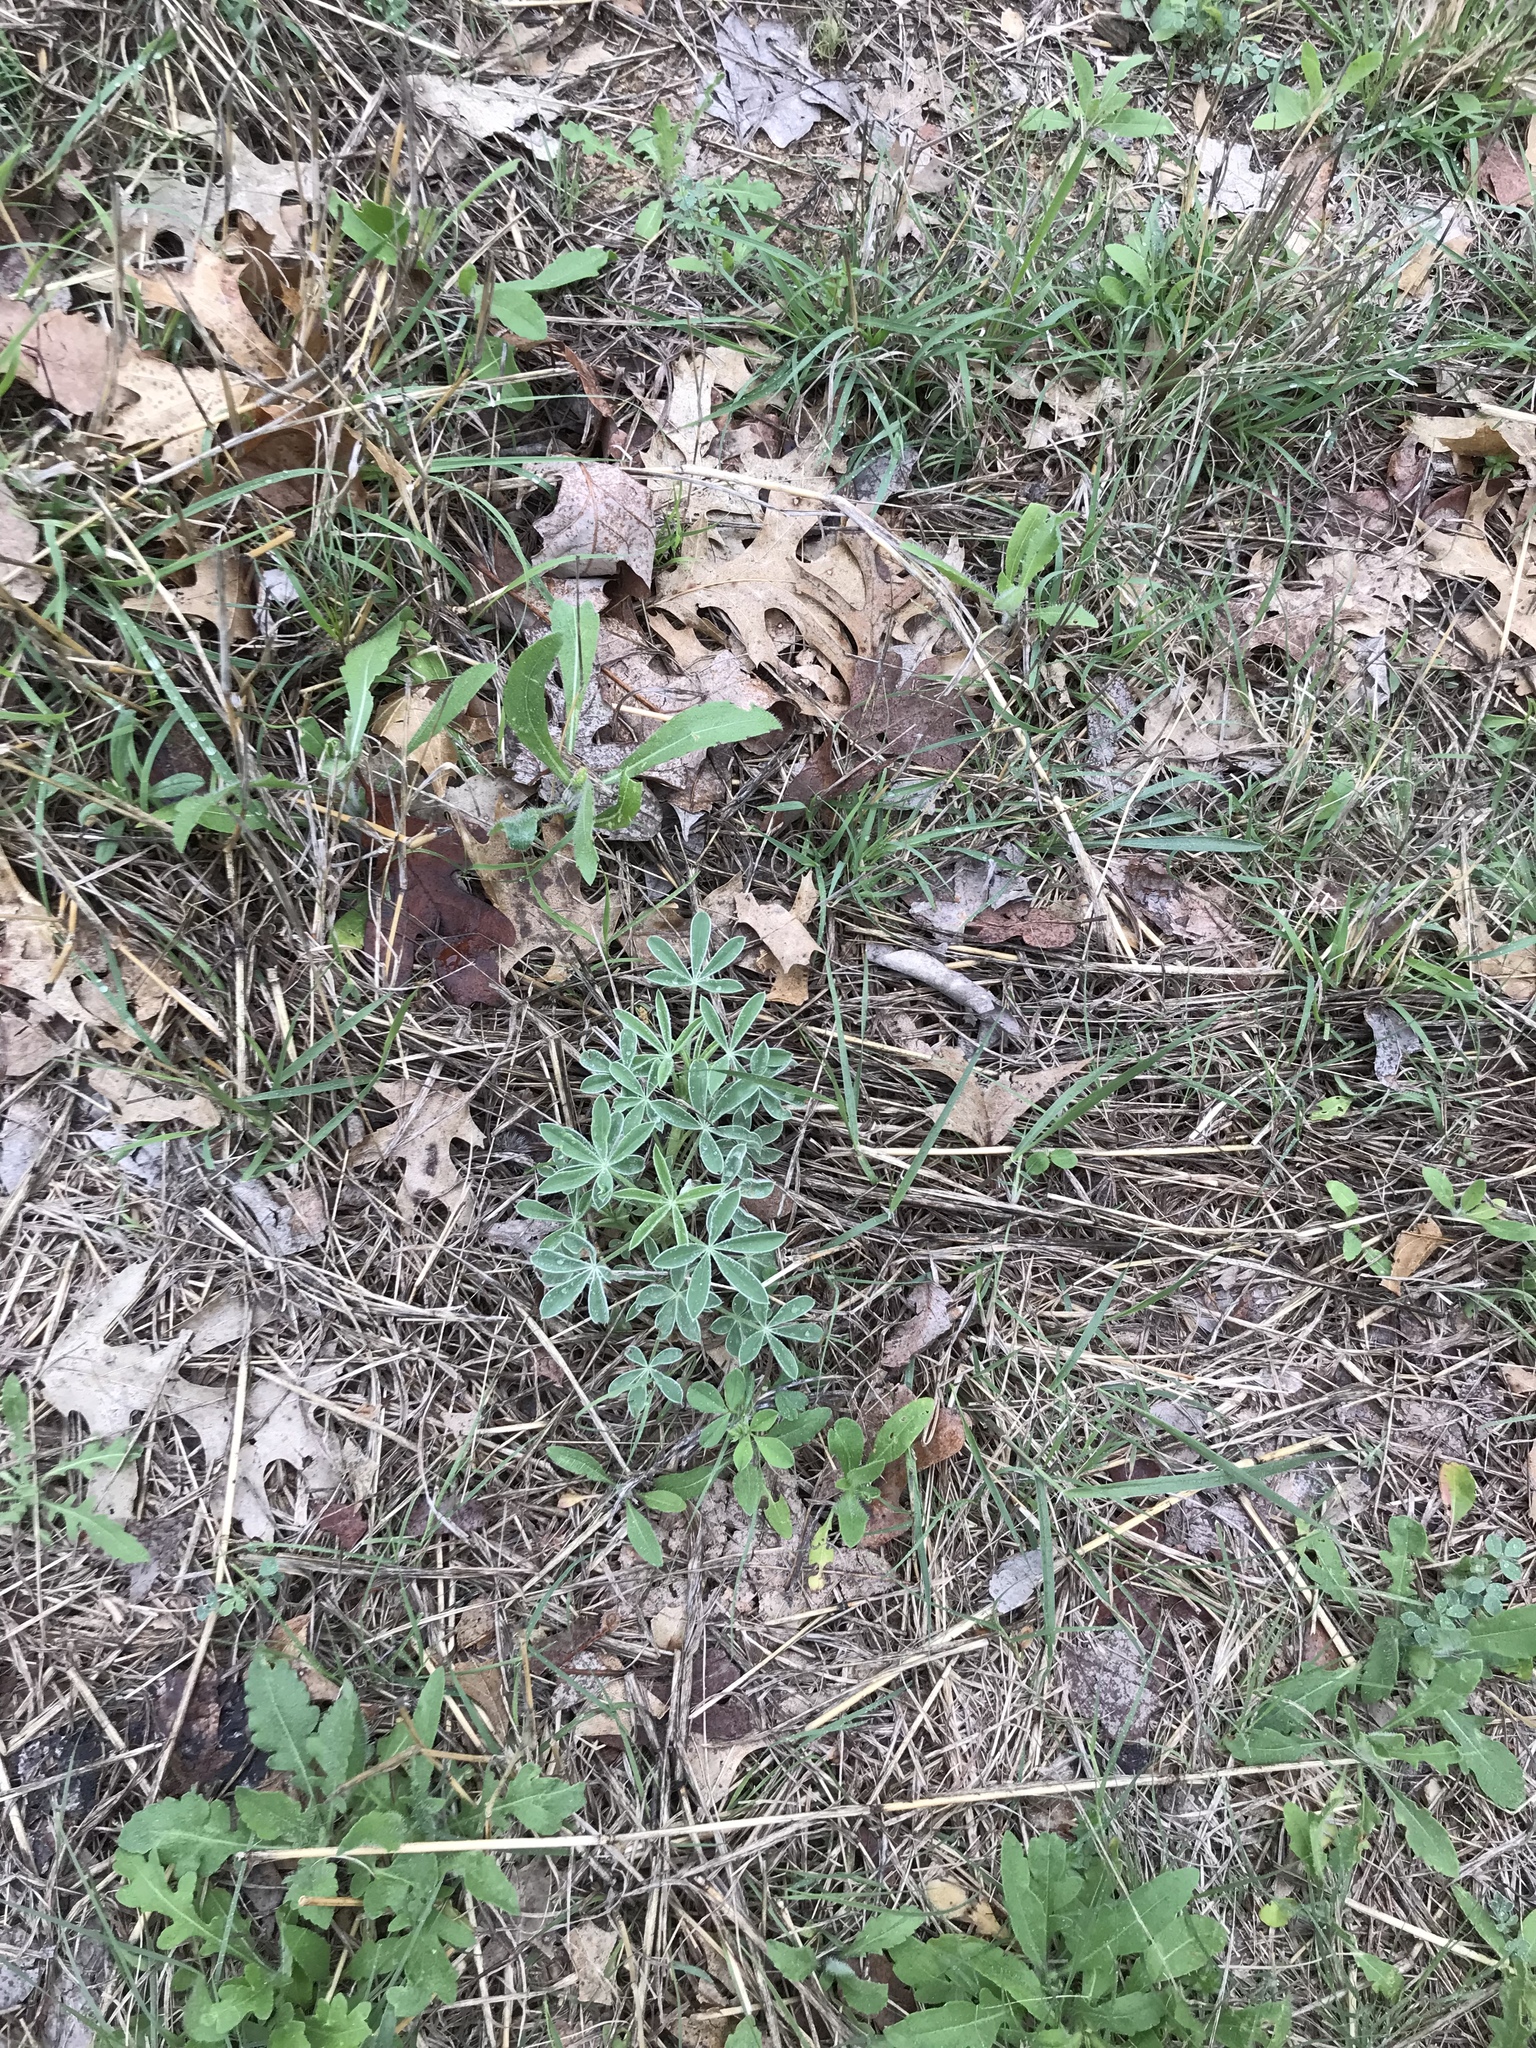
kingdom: Plantae
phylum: Tracheophyta
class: Magnoliopsida
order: Fabales
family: Fabaceae
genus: Lupinus
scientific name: Lupinus texensis
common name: Texas bluebonnet
